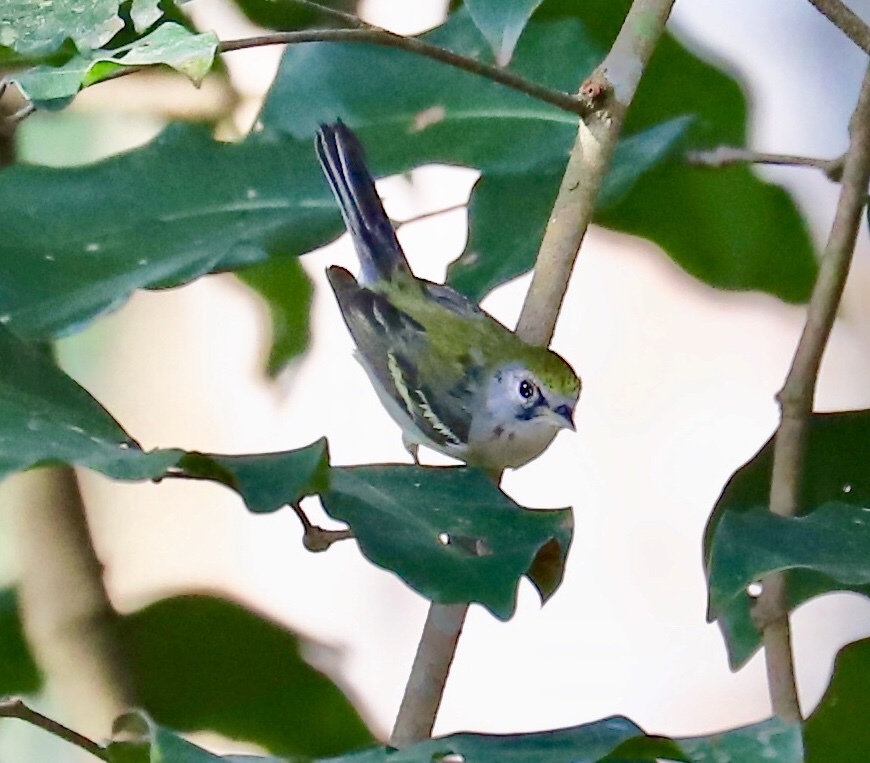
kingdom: Animalia
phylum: Chordata
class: Aves
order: Passeriformes
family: Parulidae
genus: Setophaga
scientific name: Setophaga pensylvanica
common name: Chestnut-sided warbler
